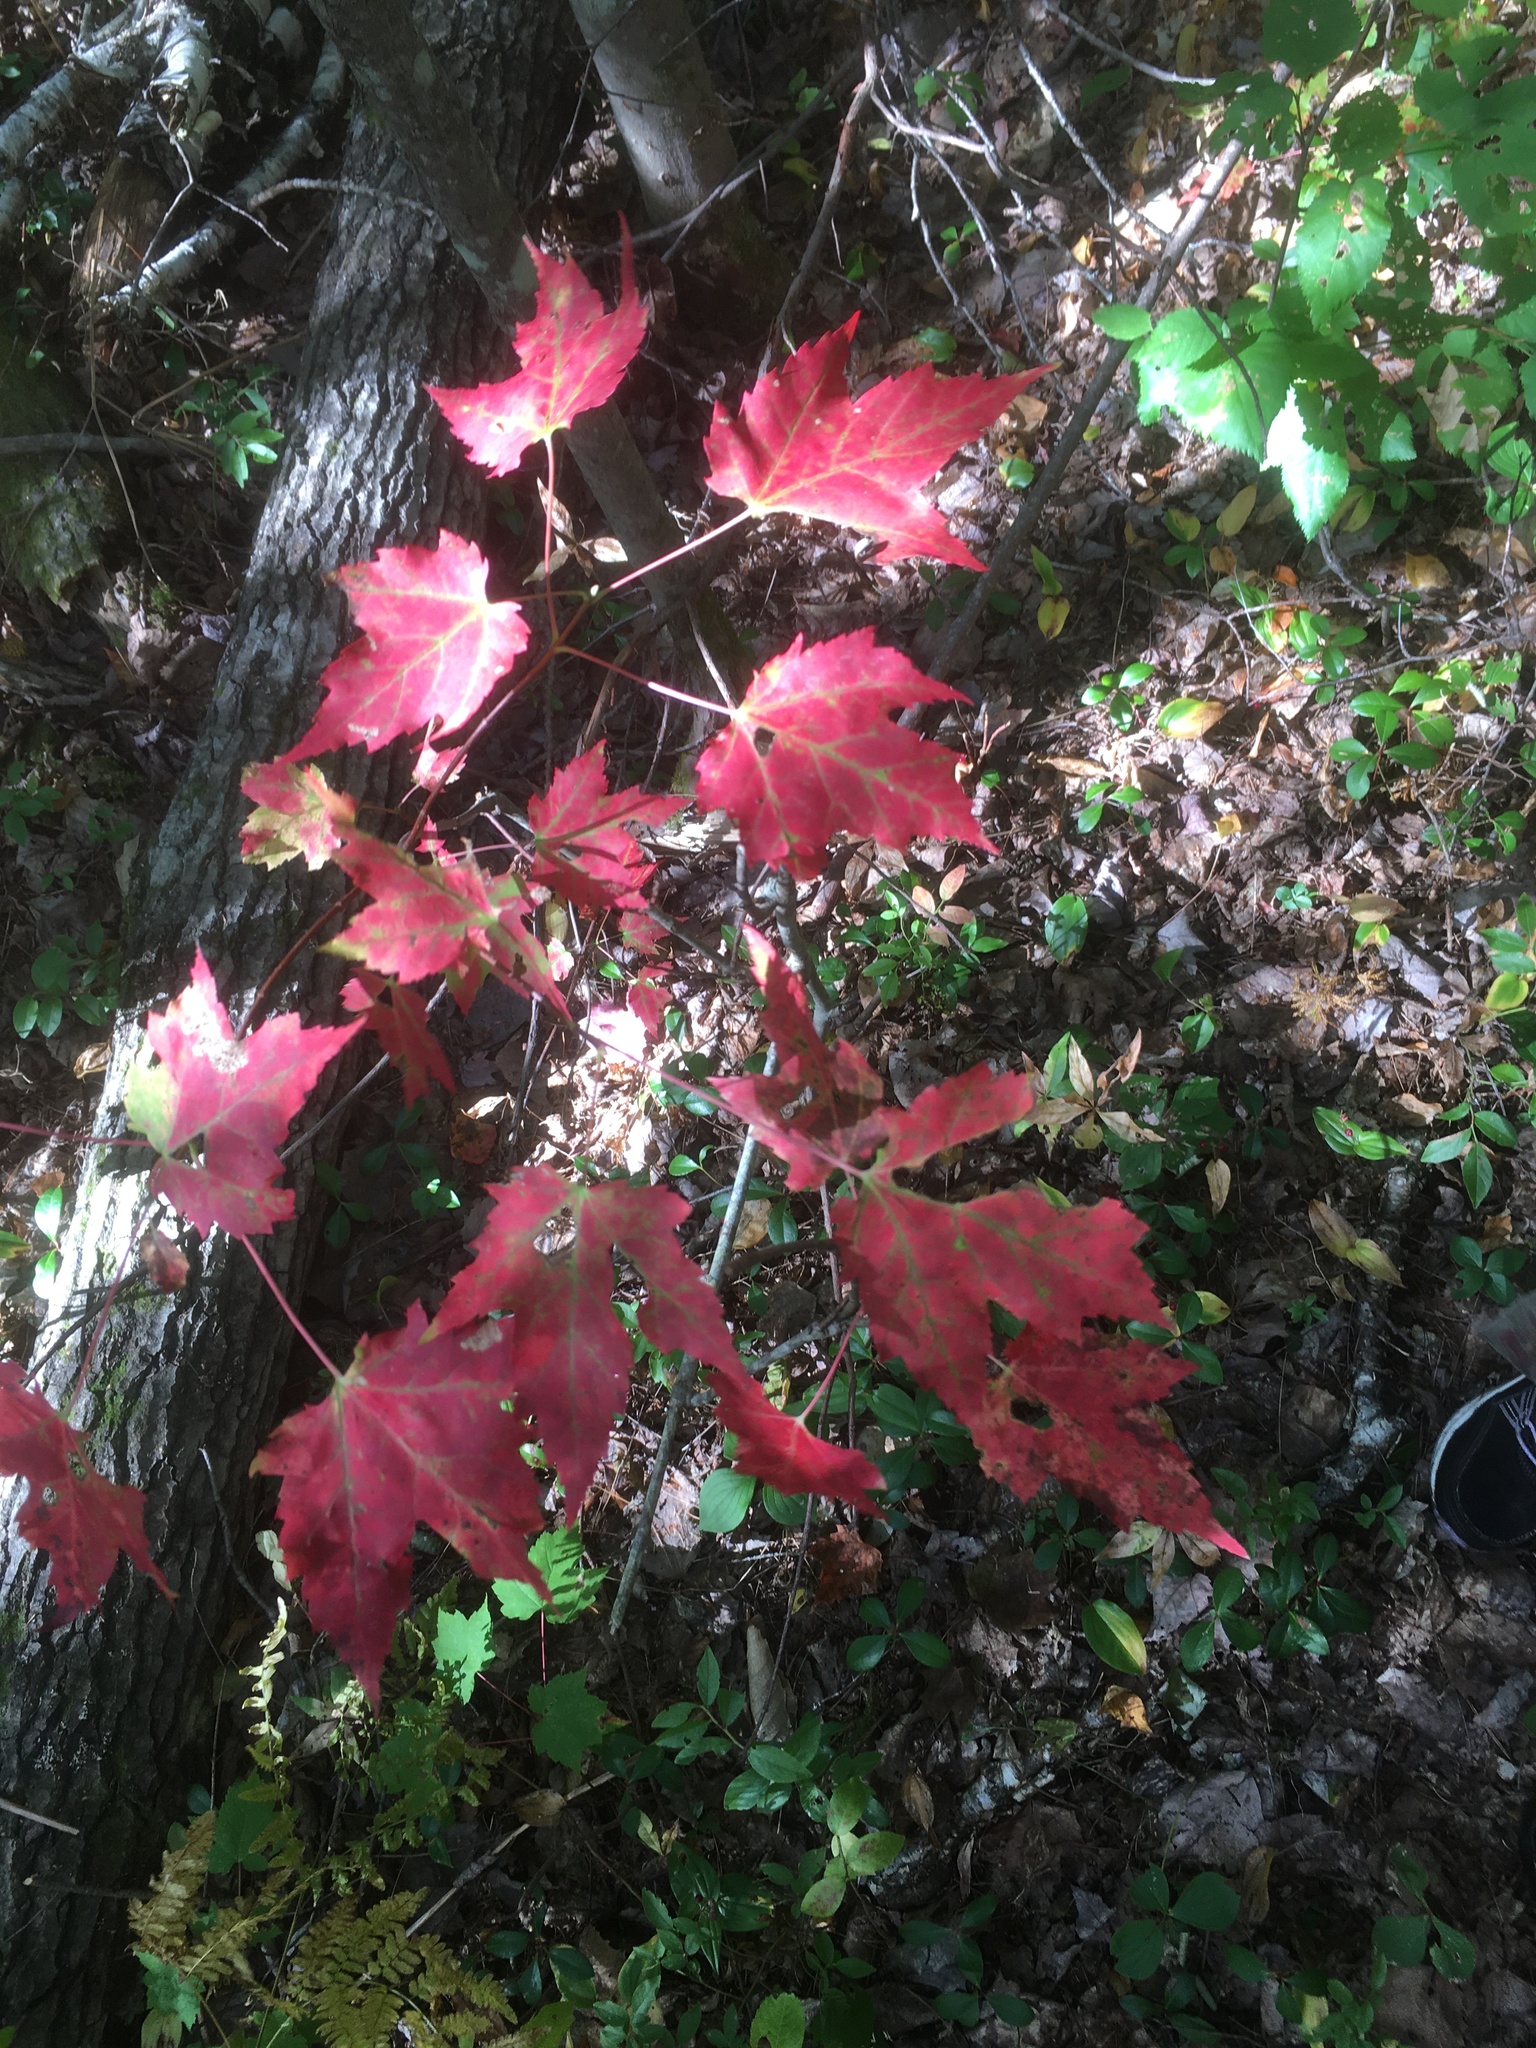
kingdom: Plantae
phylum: Tracheophyta
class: Magnoliopsida
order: Sapindales
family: Sapindaceae
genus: Acer
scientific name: Acer rubrum
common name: Red maple
